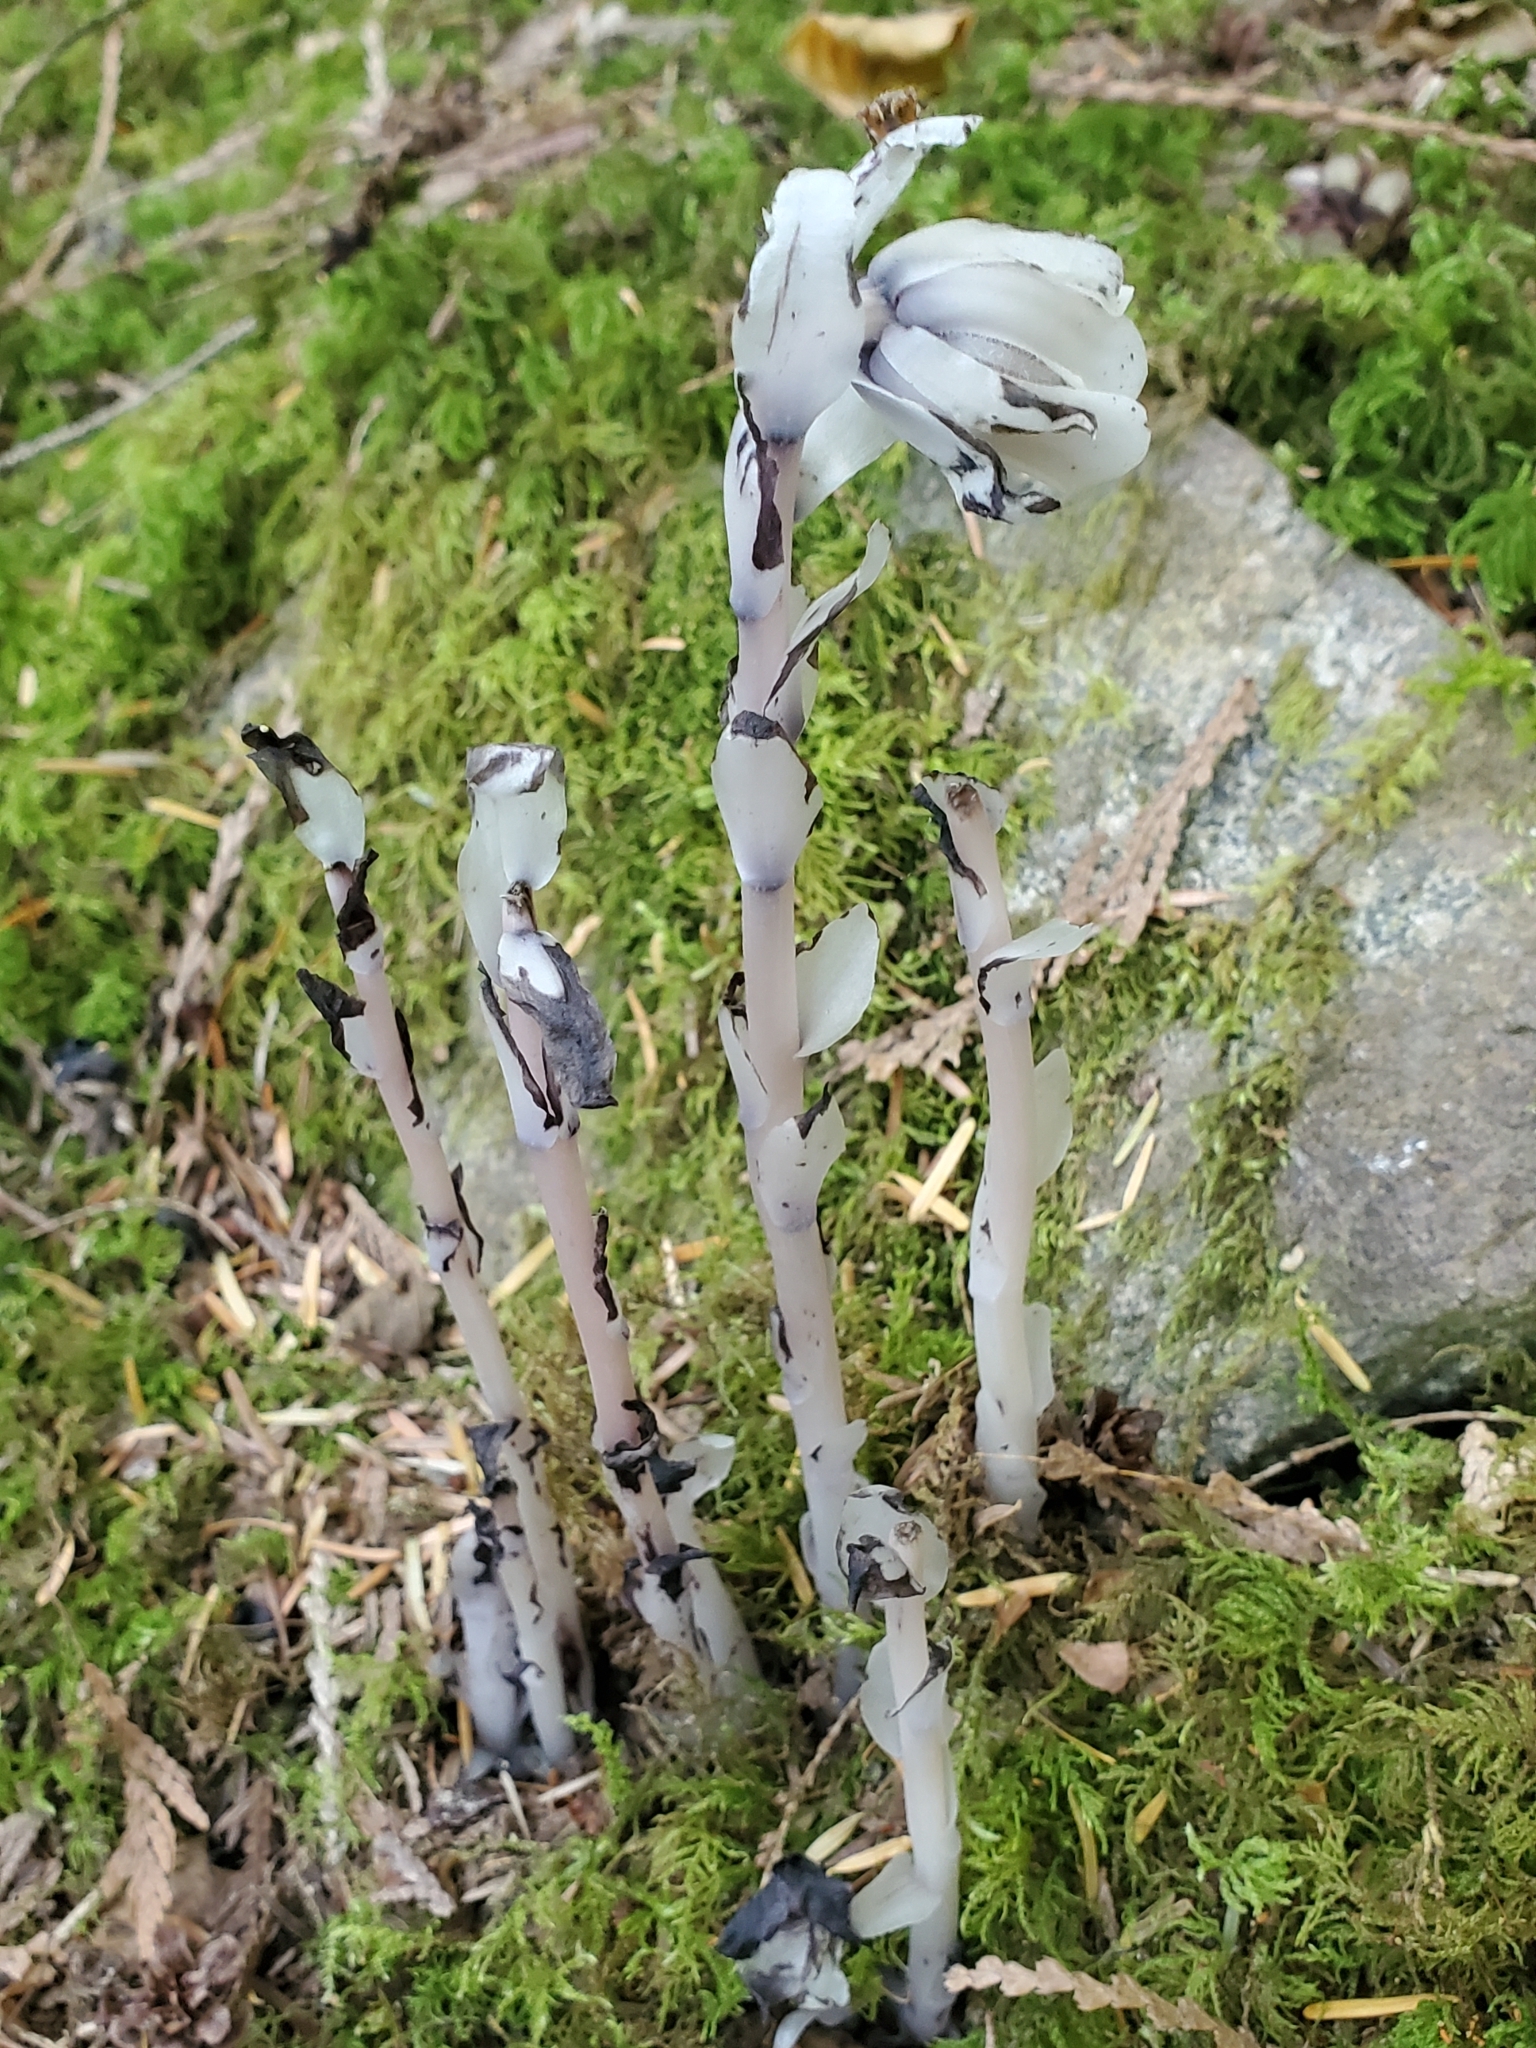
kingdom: Plantae
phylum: Tracheophyta
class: Magnoliopsida
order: Ericales
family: Ericaceae
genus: Monotropa
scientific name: Monotropa uniflora
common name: Convulsion root
